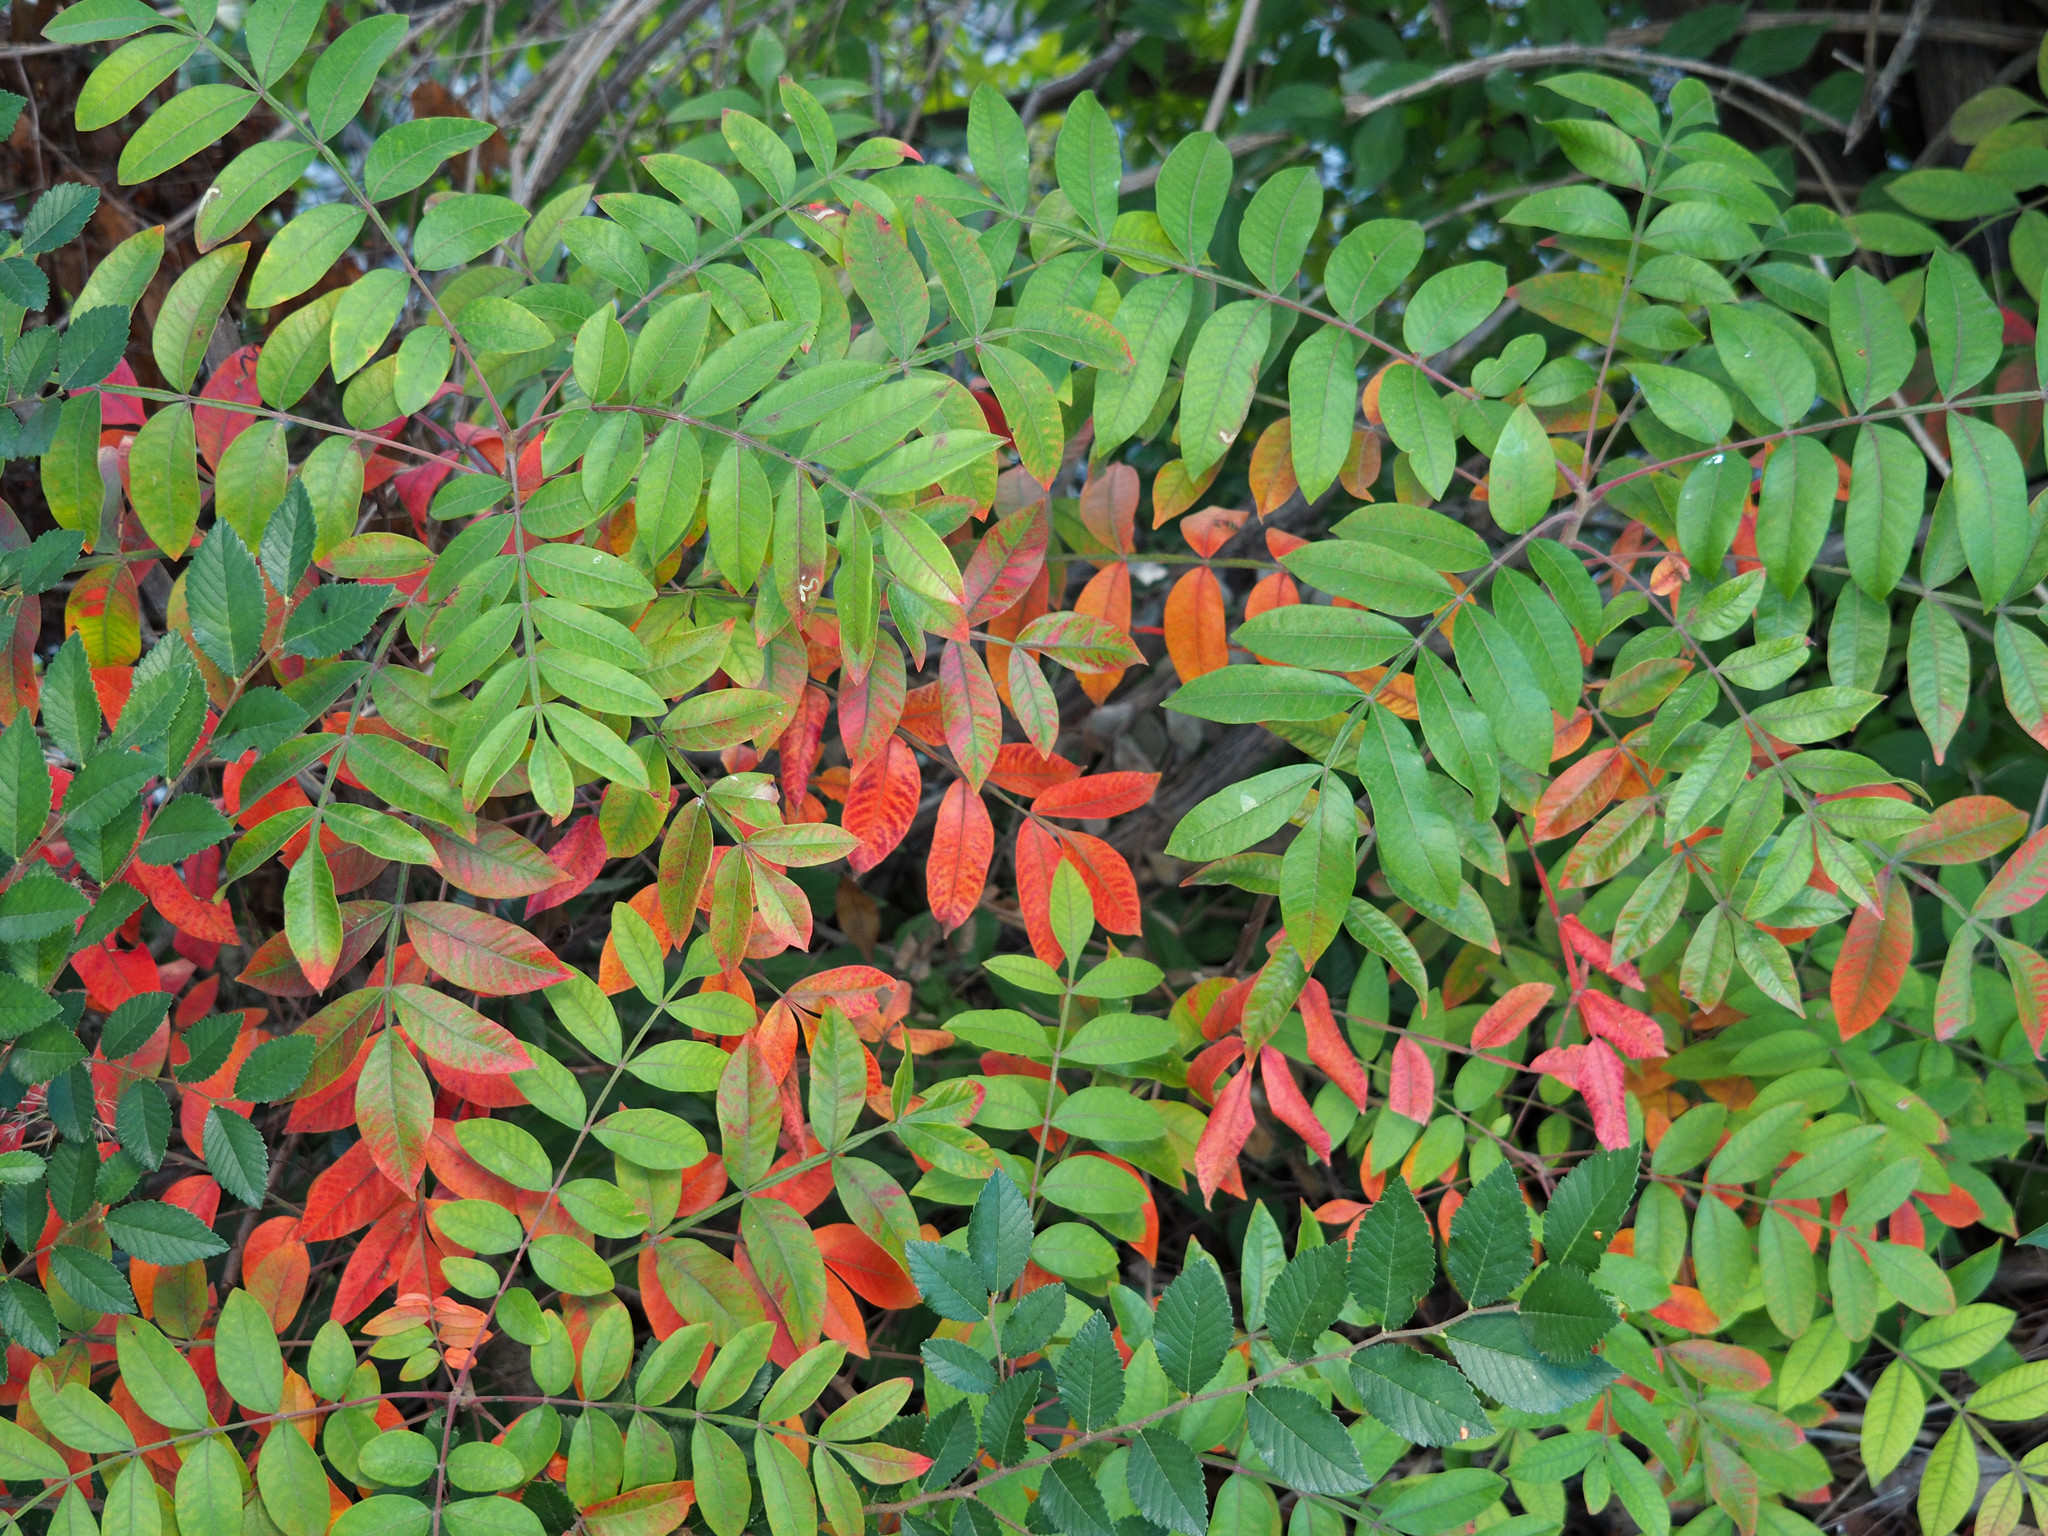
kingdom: Plantae
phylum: Tracheophyta
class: Magnoliopsida
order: Sapindales
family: Anacardiaceae
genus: Rhus
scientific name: Rhus copallina
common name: Shining sumac
